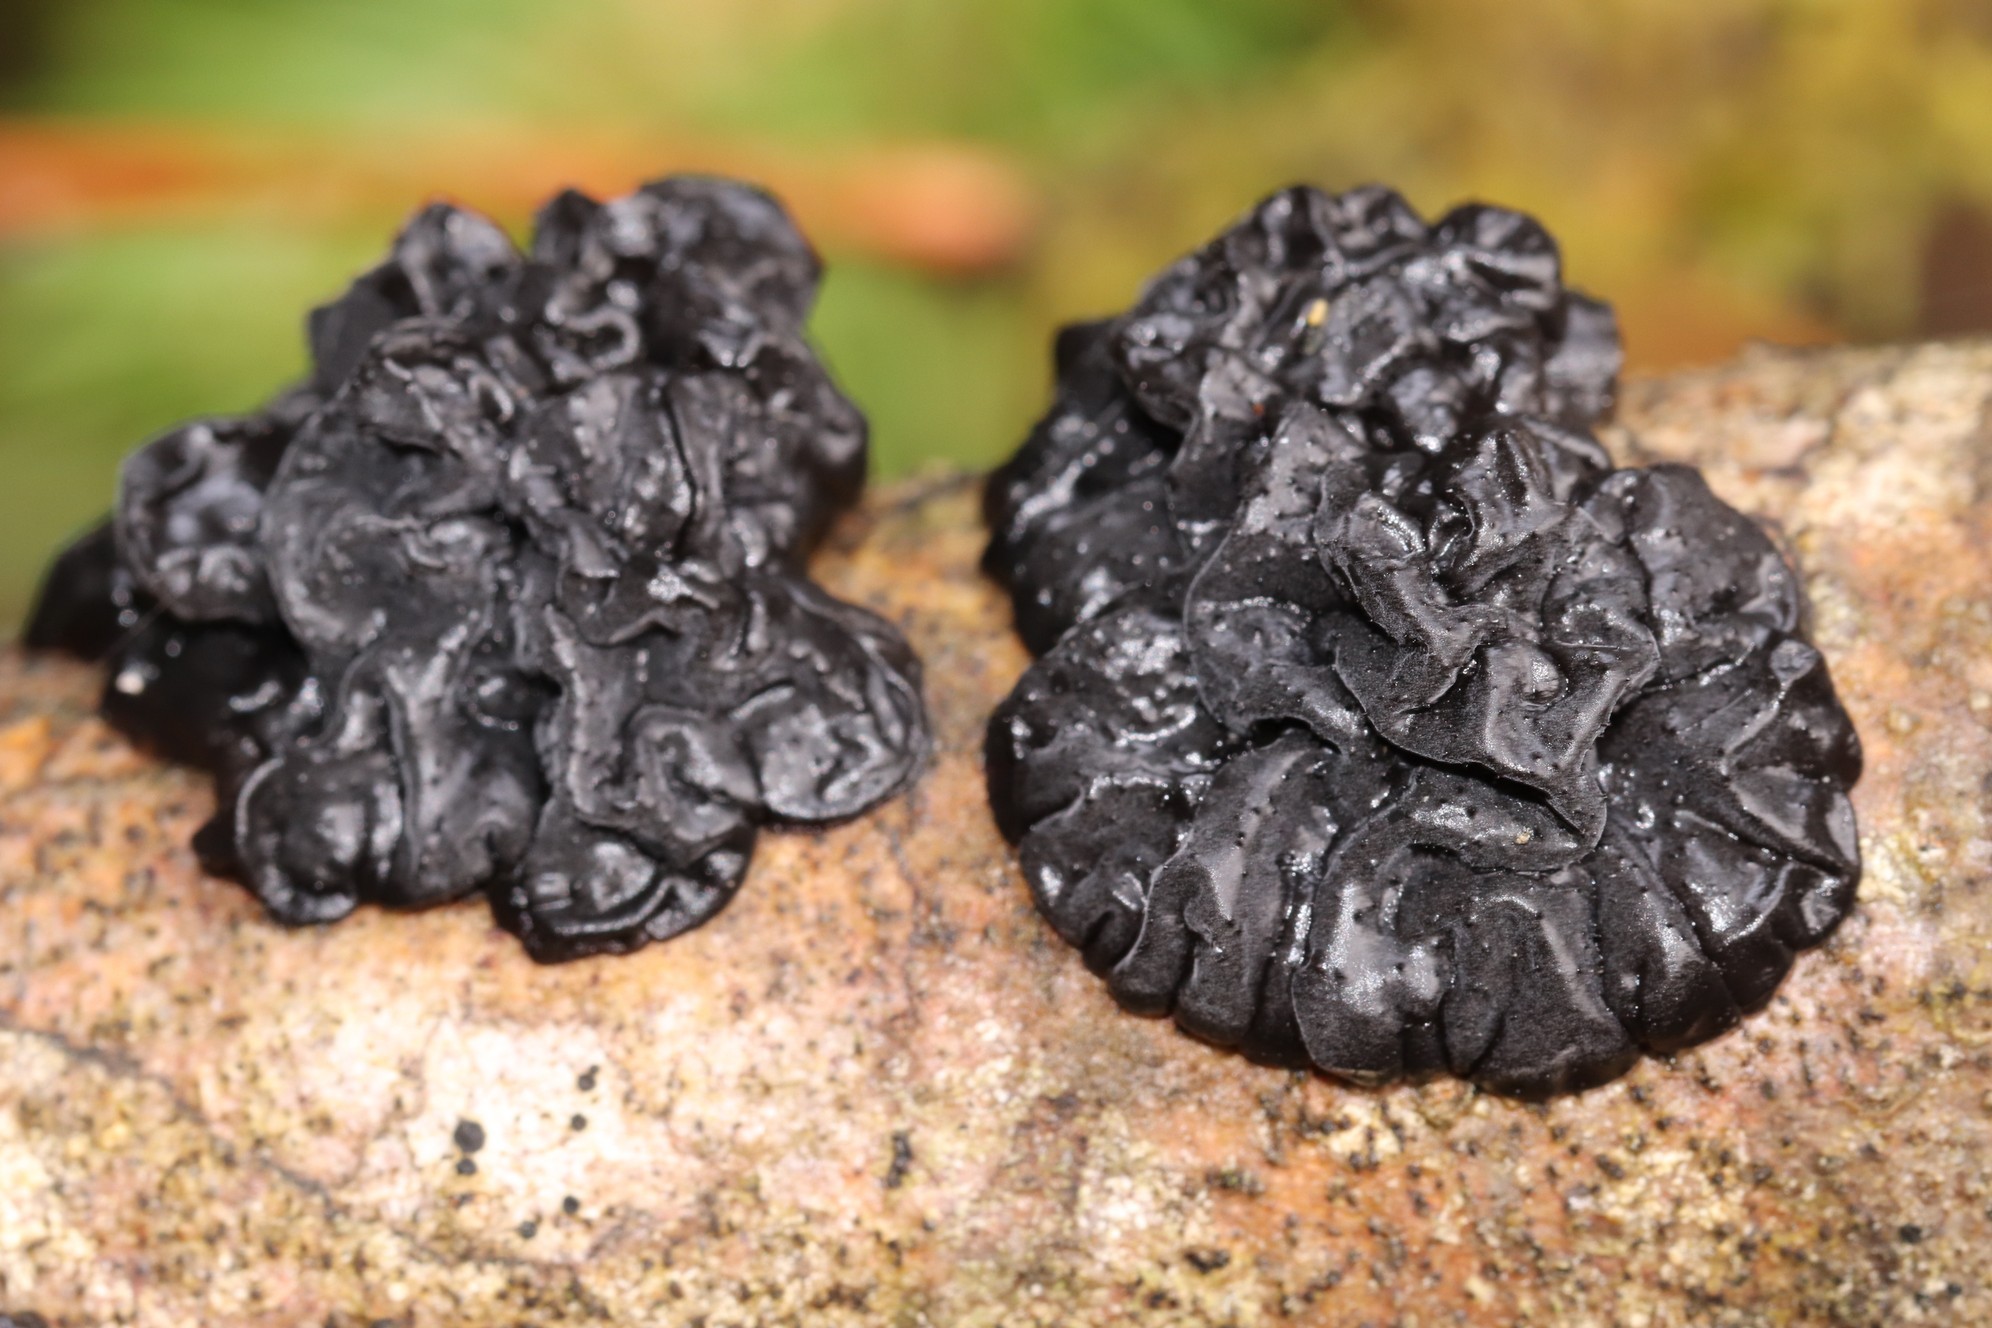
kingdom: Fungi
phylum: Basidiomycota
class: Agaricomycetes
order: Auriculariales
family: Auriculariaceae
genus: Exidia
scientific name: Exidia glandulosa
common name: Witches' butter
